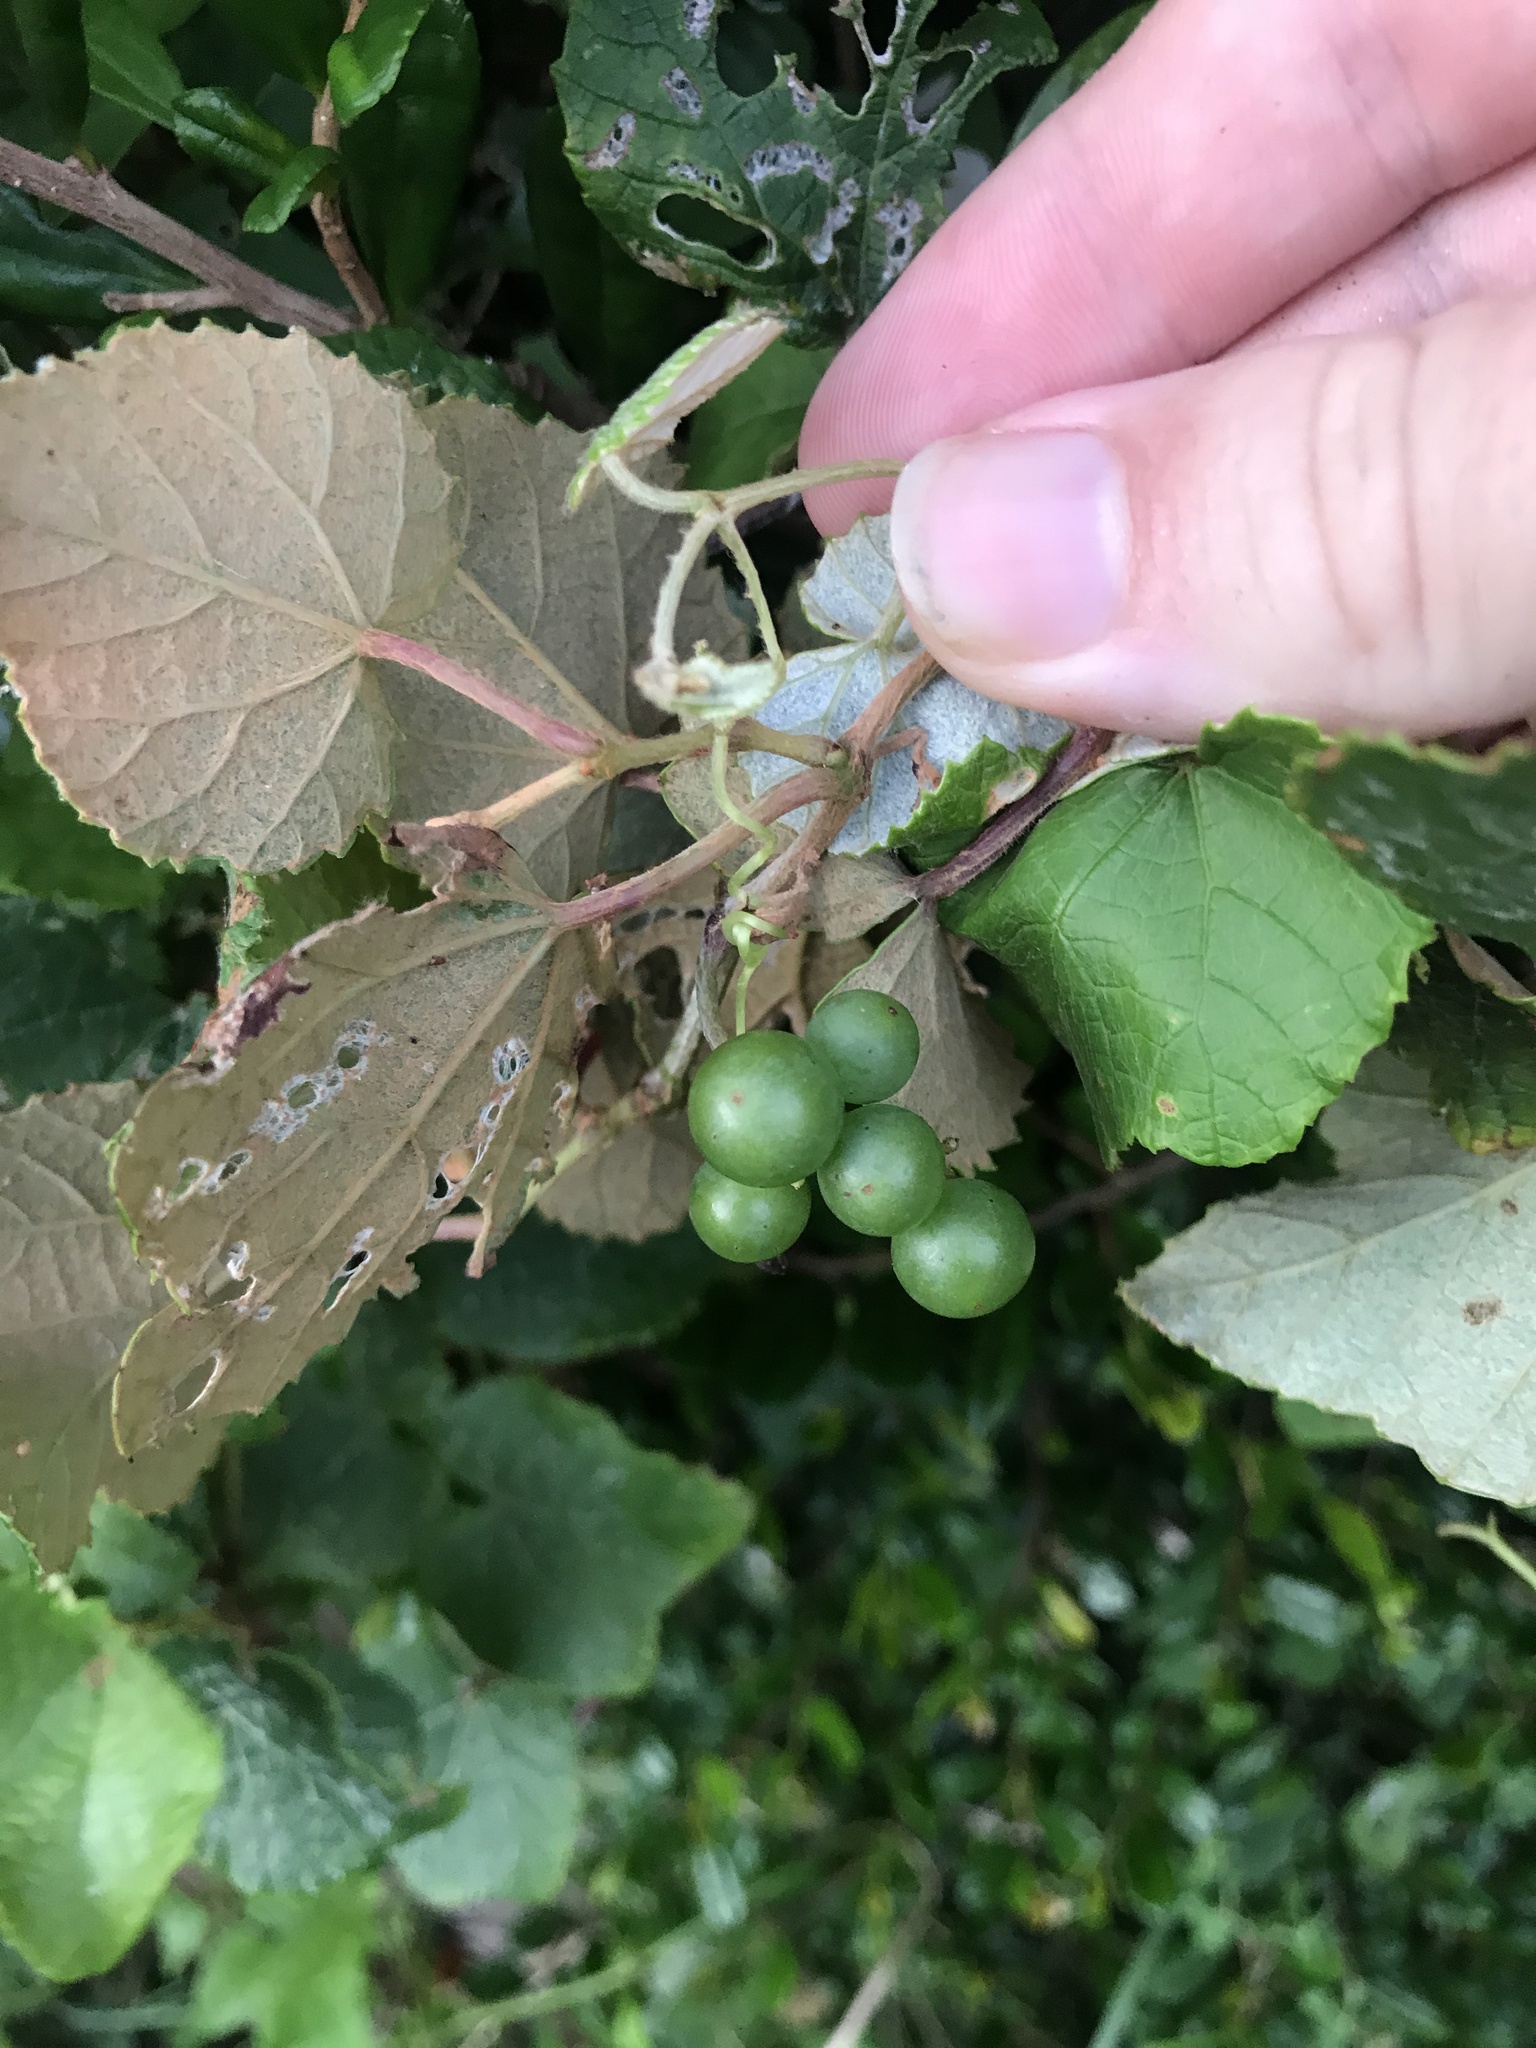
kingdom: Plantae
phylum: Tracheophyta
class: Magnoliopsida
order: Vitales
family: Vitaceae
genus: Vitis
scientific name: Vitis ficifolia
